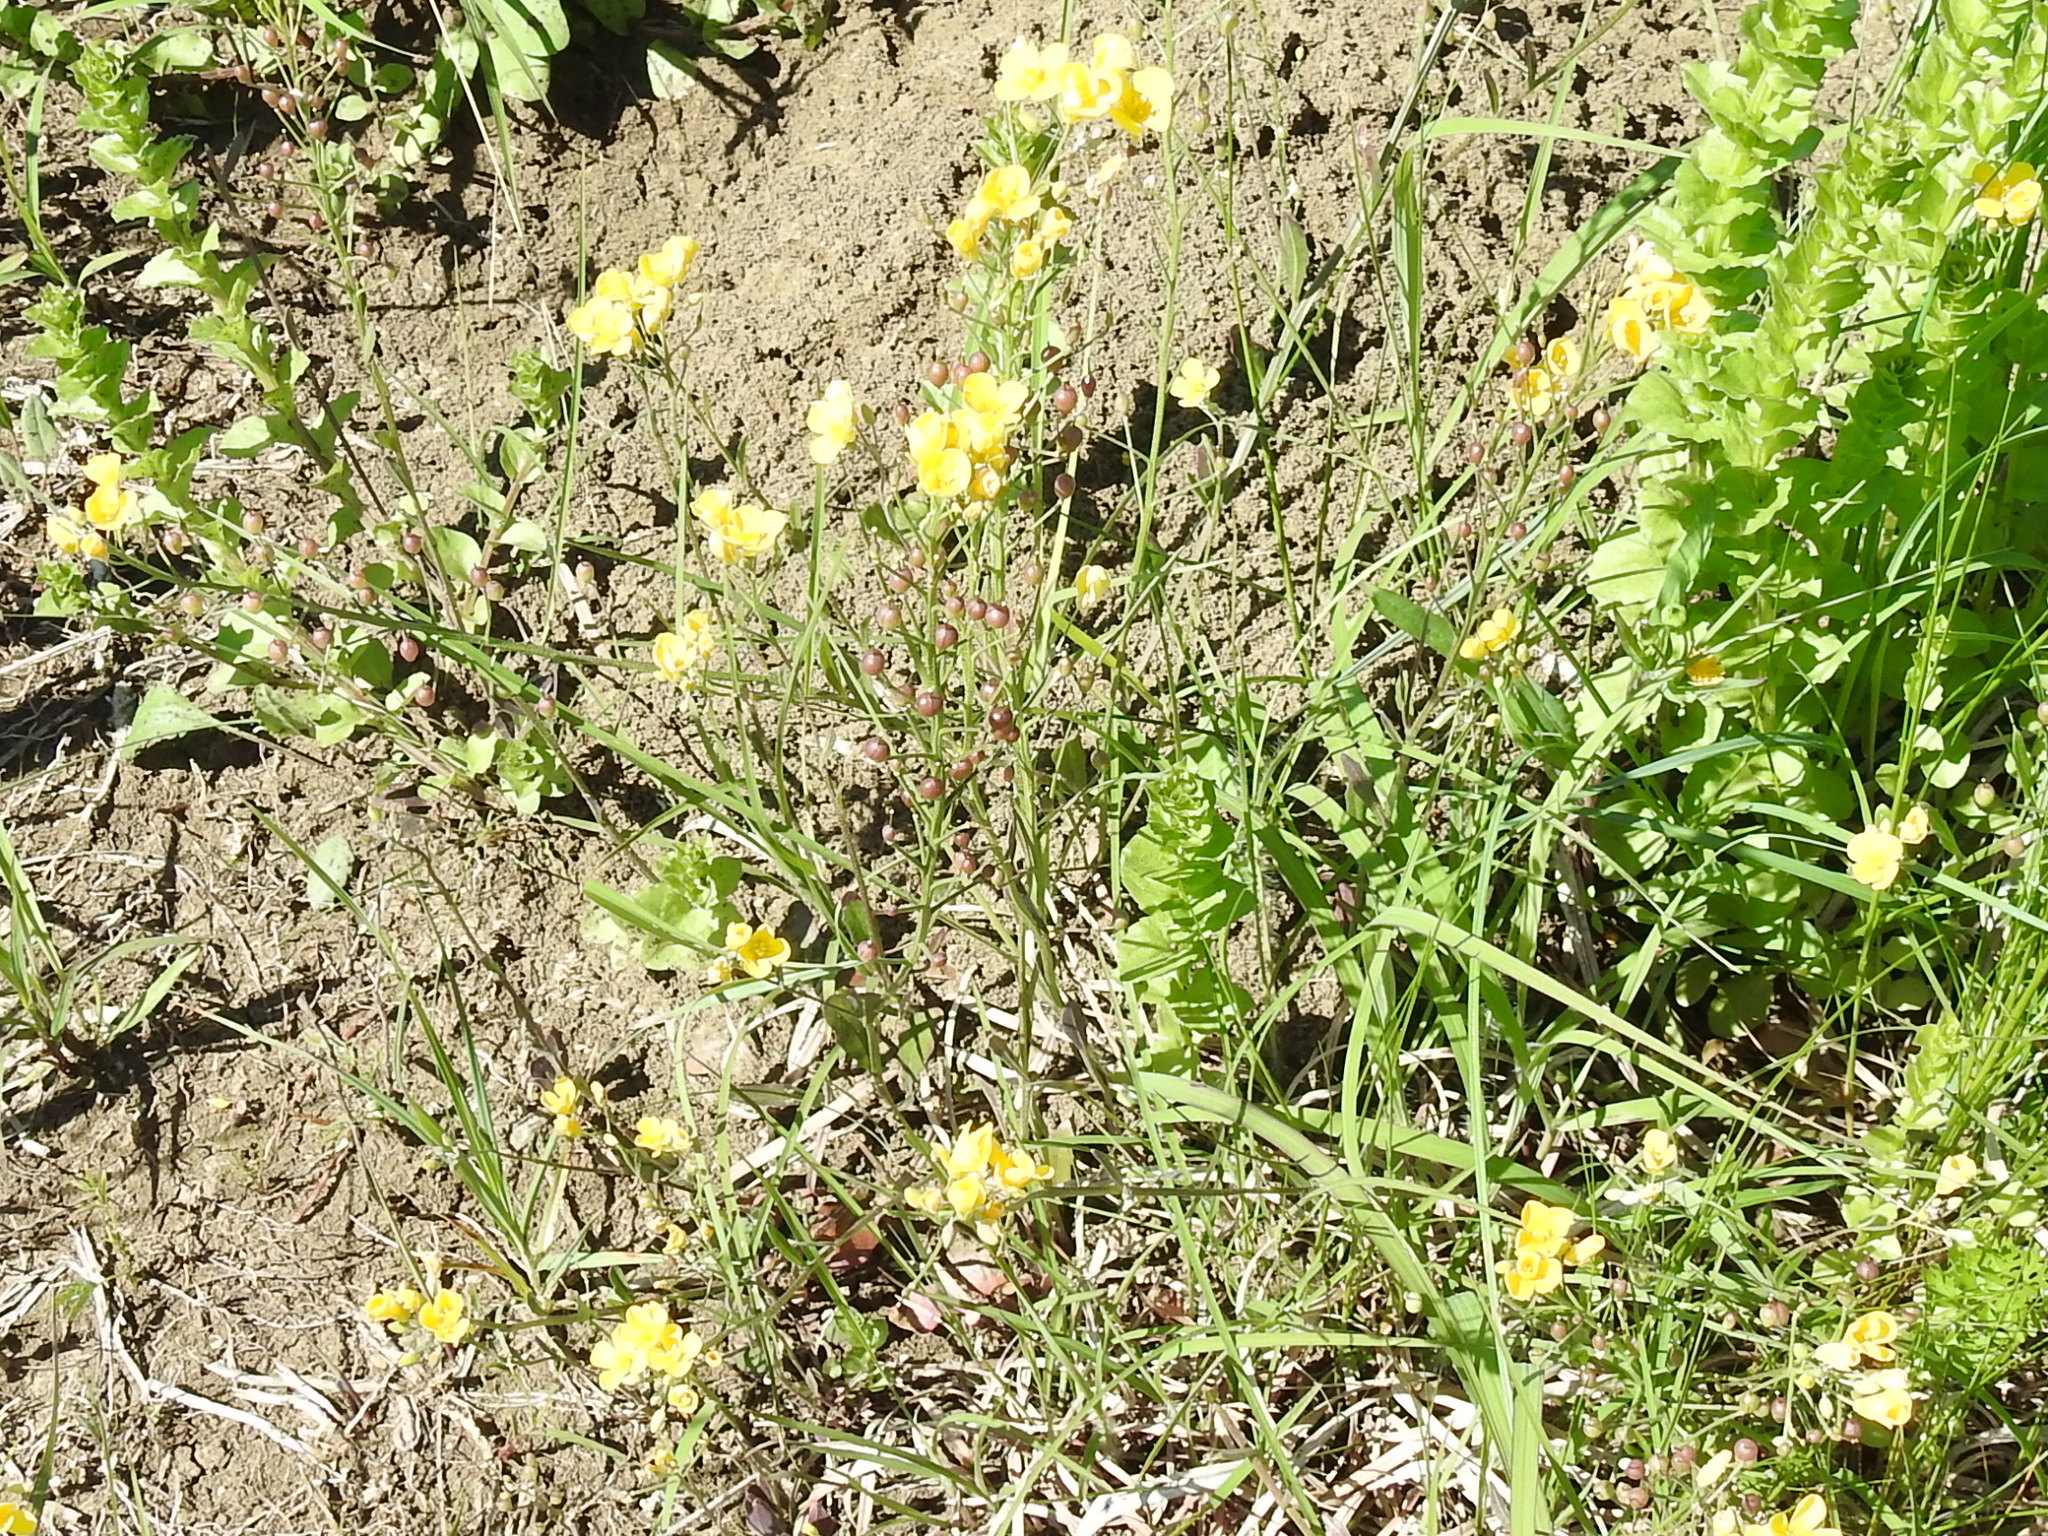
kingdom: Plantae
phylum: Tracheophyta
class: Magnoliopsida
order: Brassicales
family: Brassicaceae
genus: Physaria
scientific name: Physaria gracilis
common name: Spreading bladderpod
